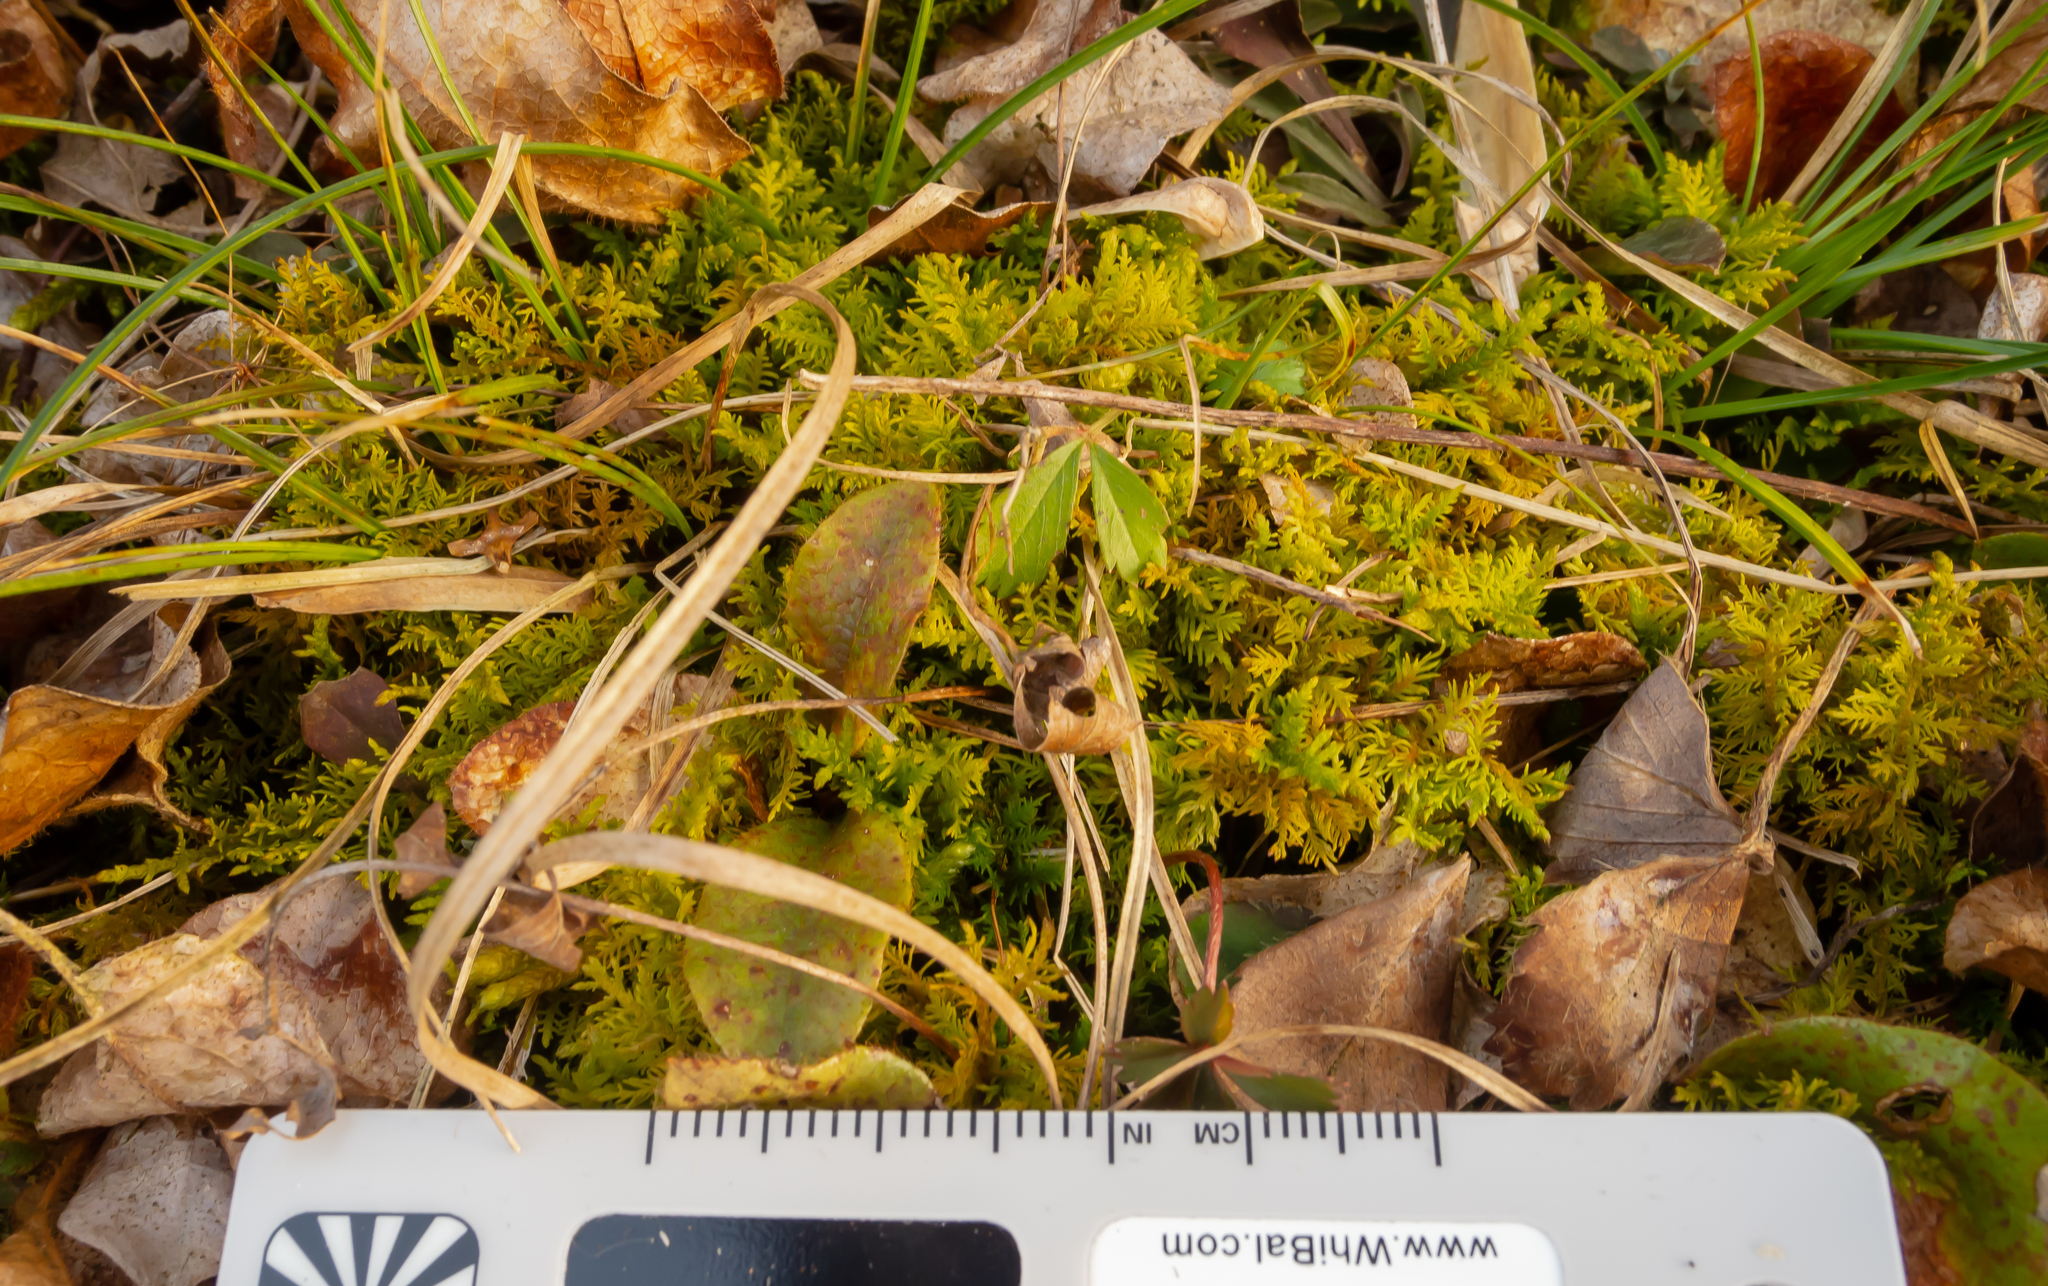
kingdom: Plantae
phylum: Bryophyta
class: Bryopsida
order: Hypnales
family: Thuidiaceae
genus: Thuidium
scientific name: Thuidium delicatulum
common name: Delicate fern moss
